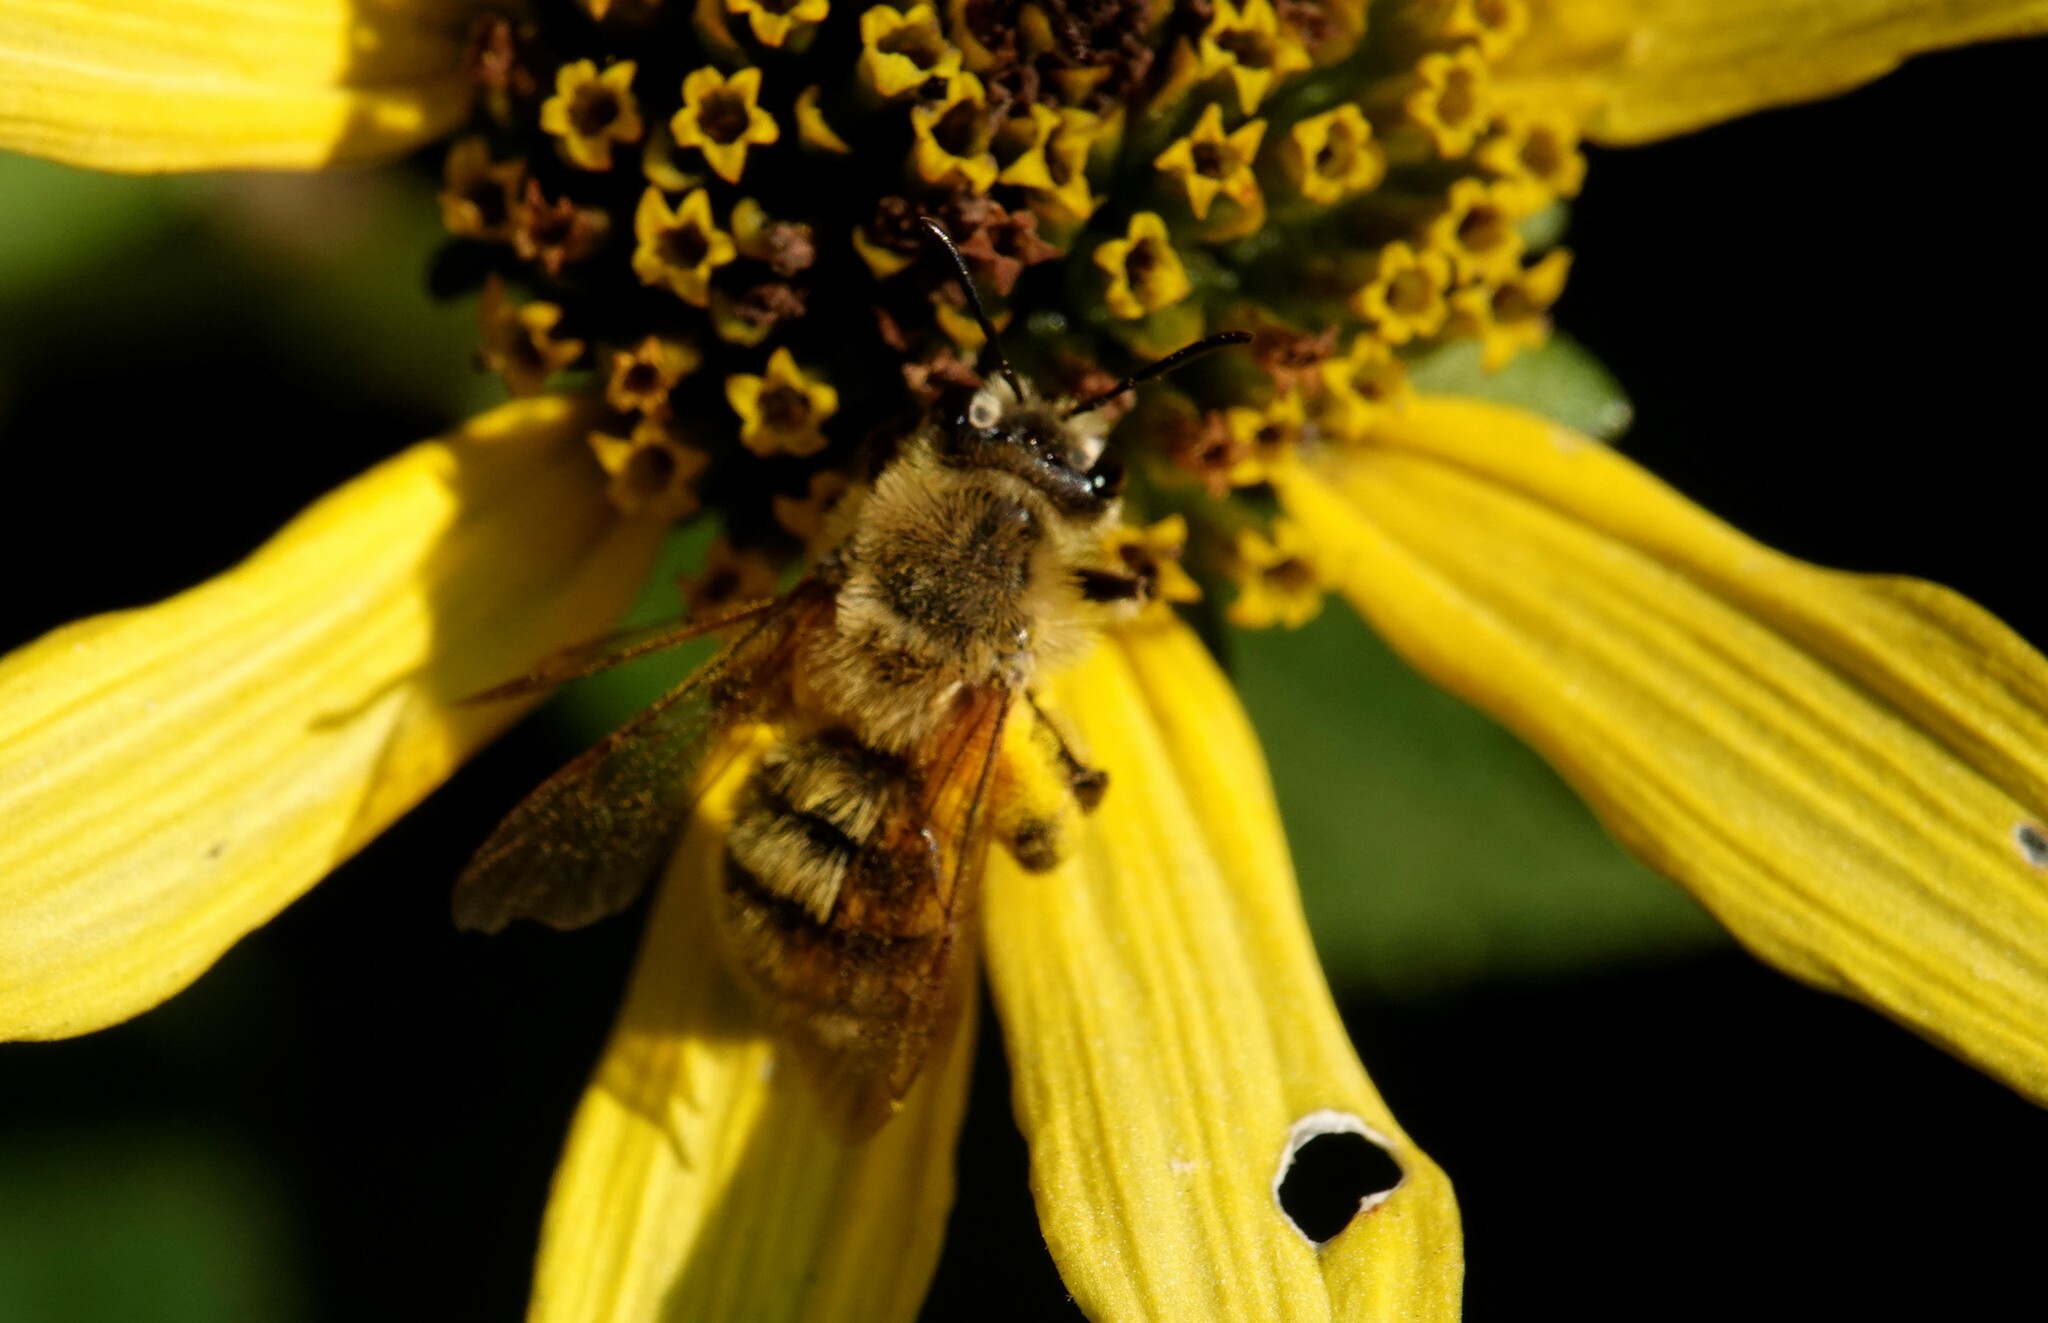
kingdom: Animalia
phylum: Arthropoda
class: Insecta
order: Hymenoptera
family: Andrenidae
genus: Andrena
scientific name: Andrena hirticincta
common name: Hairy-banded mining bee
